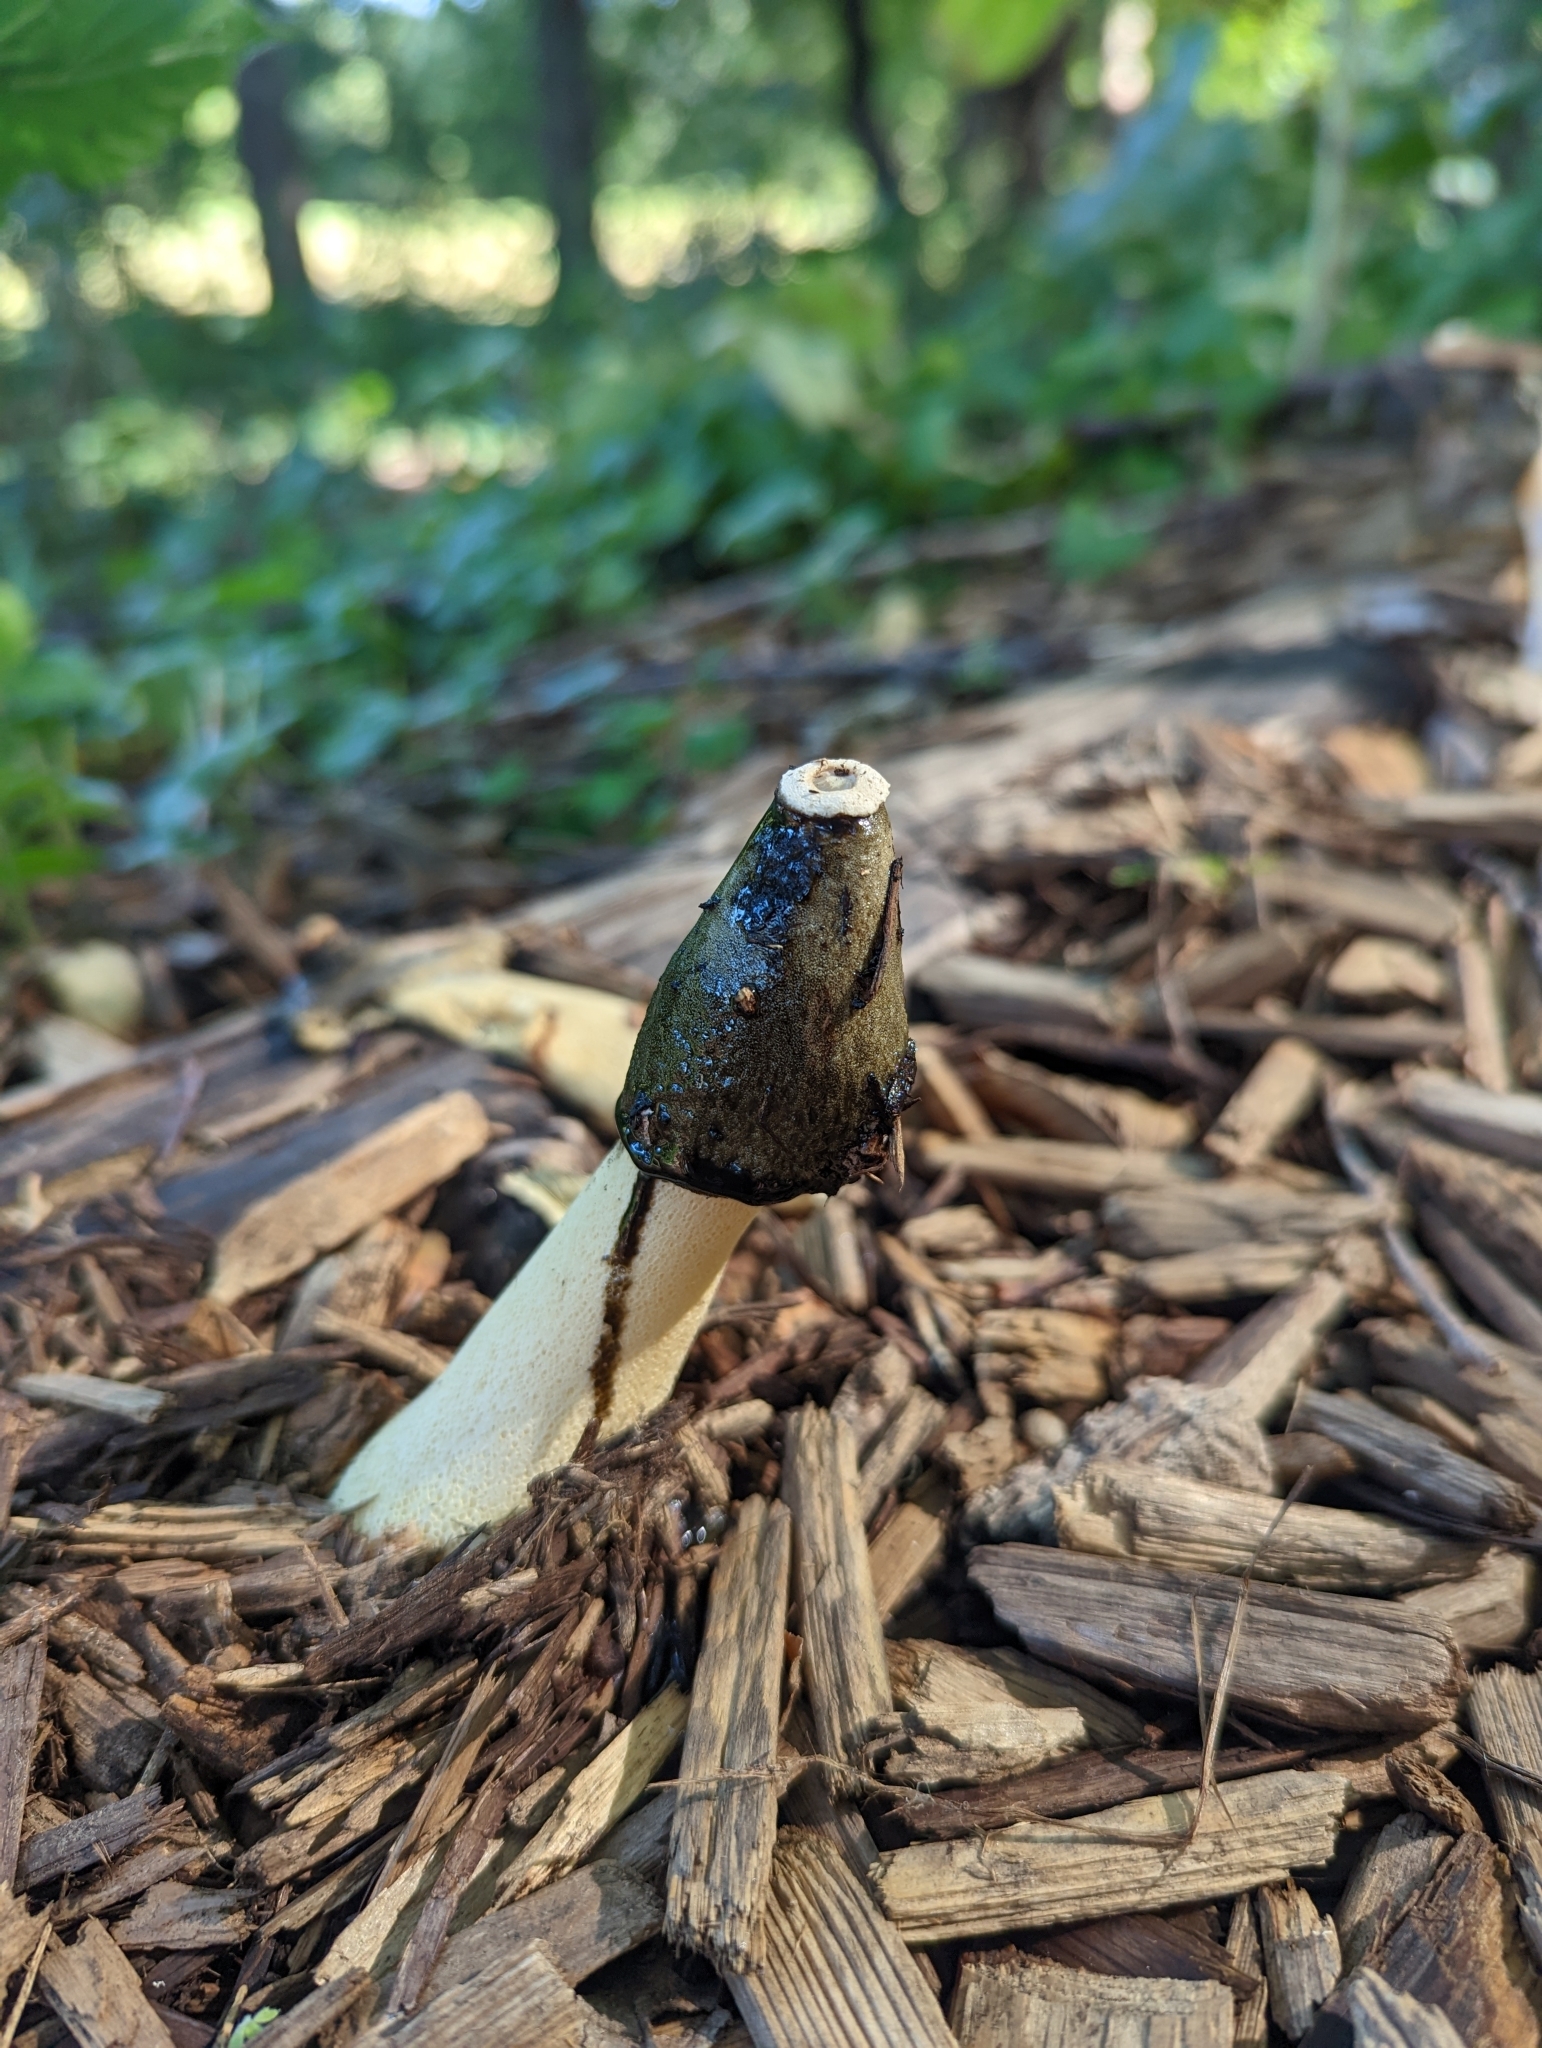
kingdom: Fungi
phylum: Basidiomycota
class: Agaricomycetes
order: Phallales
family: Phallaceae
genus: Phallus
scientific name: Phallus ravenelii
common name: Ravenel's stinkhorn
